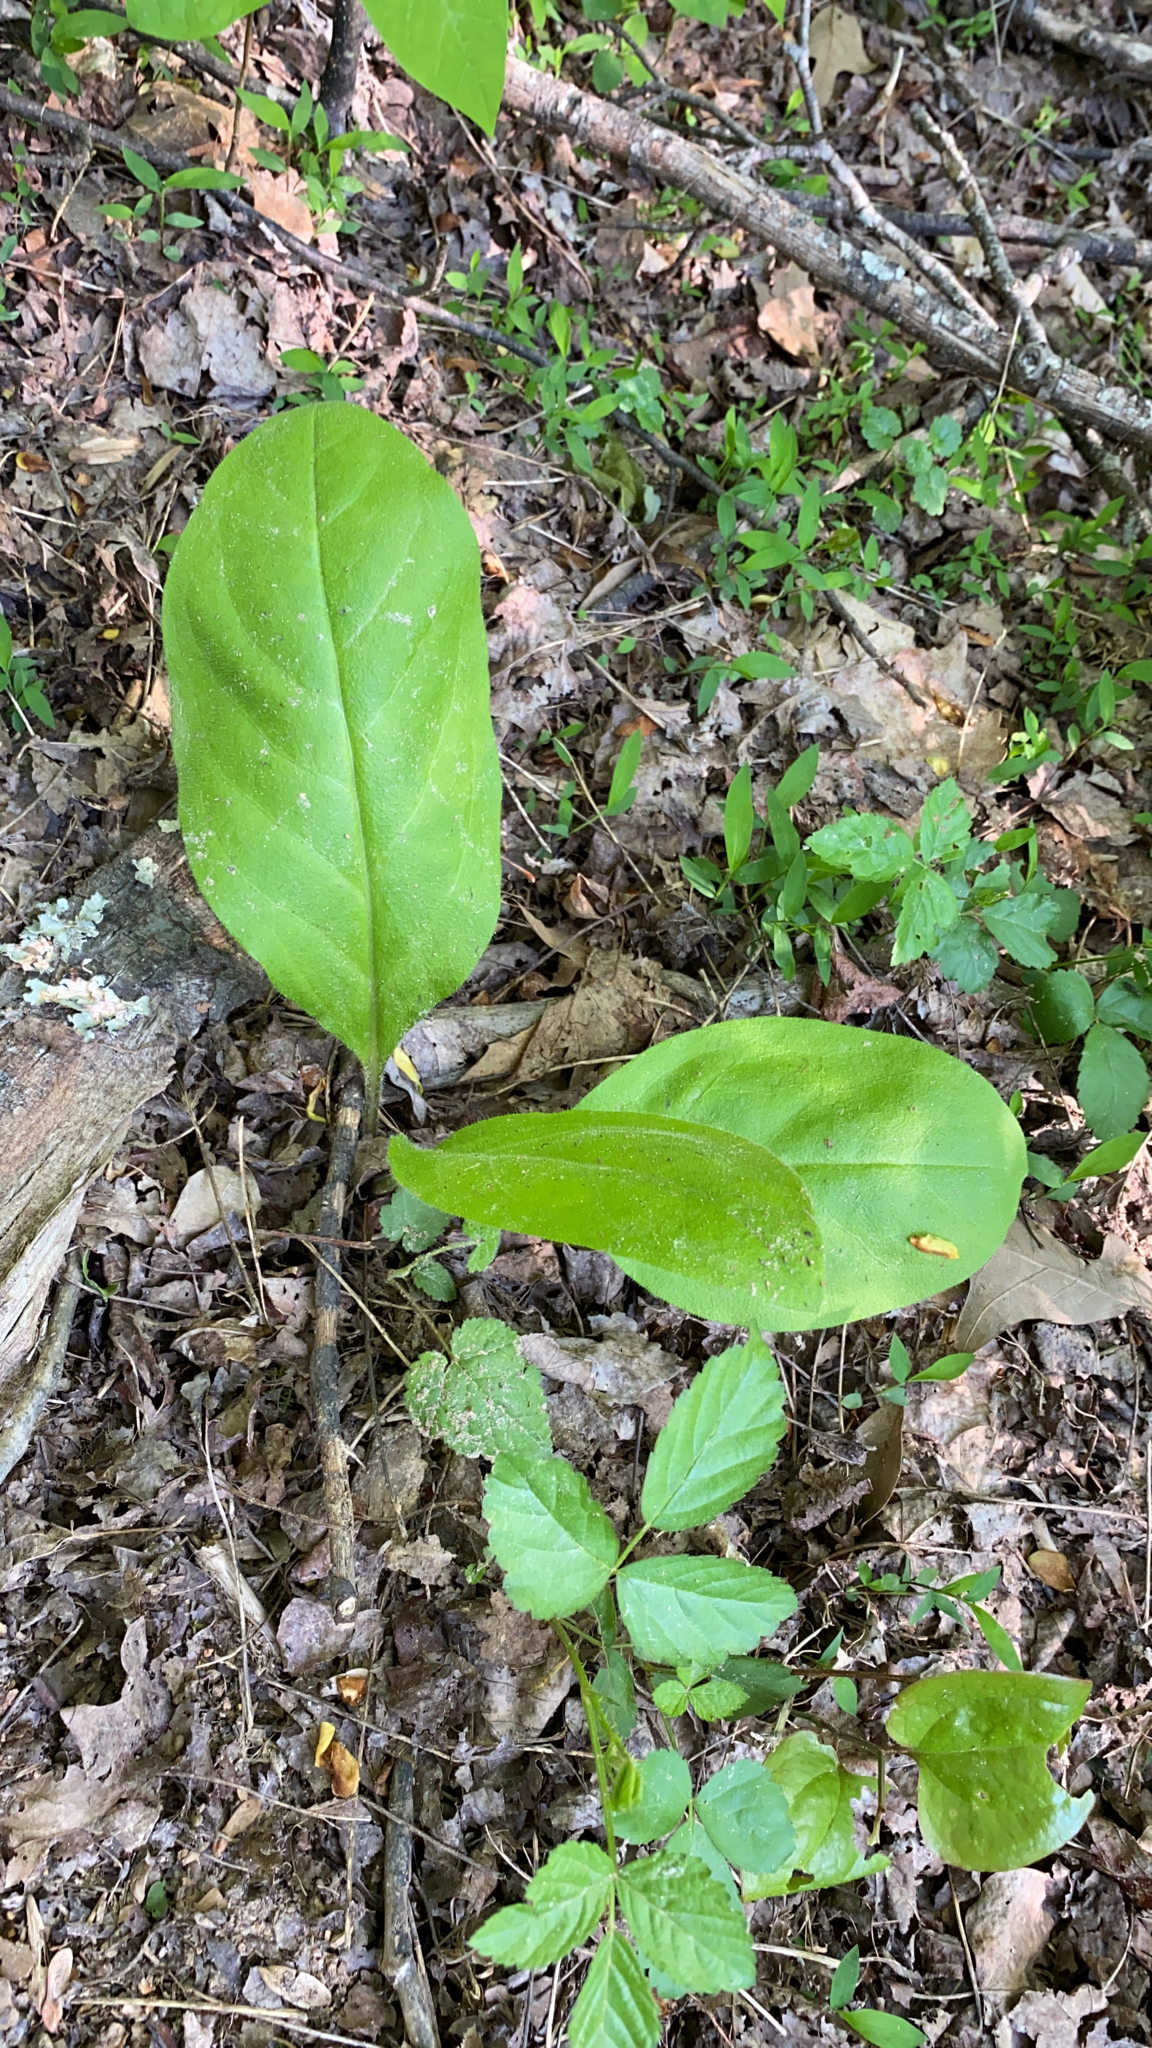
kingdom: Plantae
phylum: Tracheophyta
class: Magnoliopsida
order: Boraginales
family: Boraginaceae
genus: Andersonglossum
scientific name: Andersonglossum virginianum
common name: Wild comfrey
